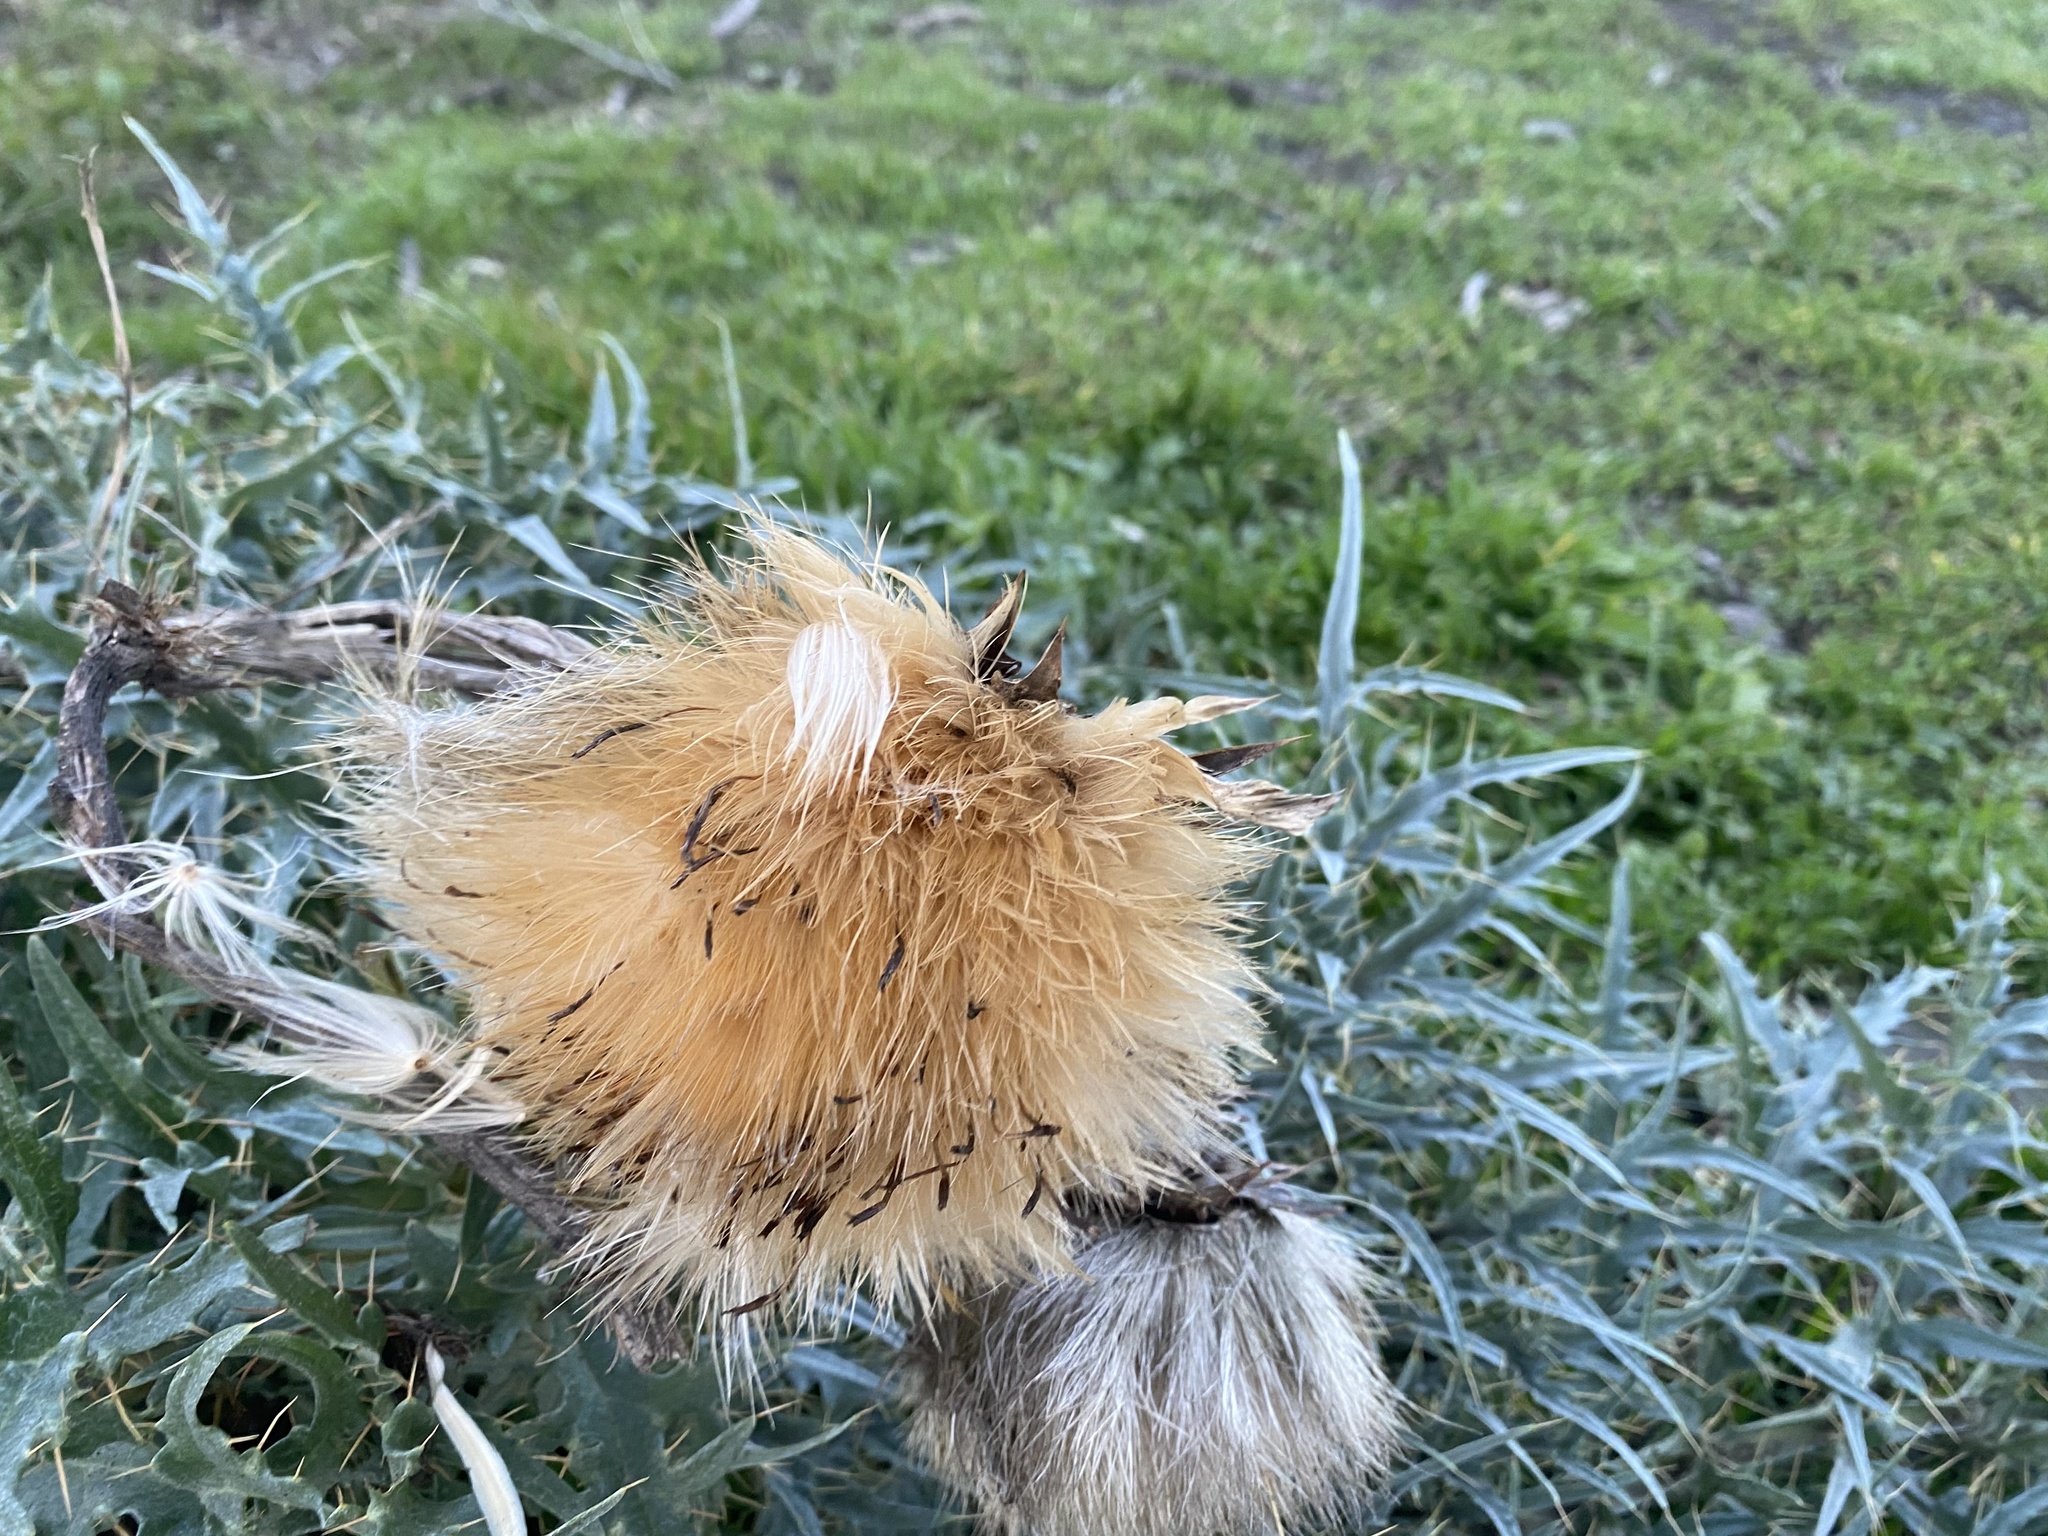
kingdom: Plantae
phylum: Tracheophyta
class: Magnoliopsida
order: Asterales
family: Asteraceae
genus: Cynara
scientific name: Cynara cardunculus
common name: Globe artichoke
